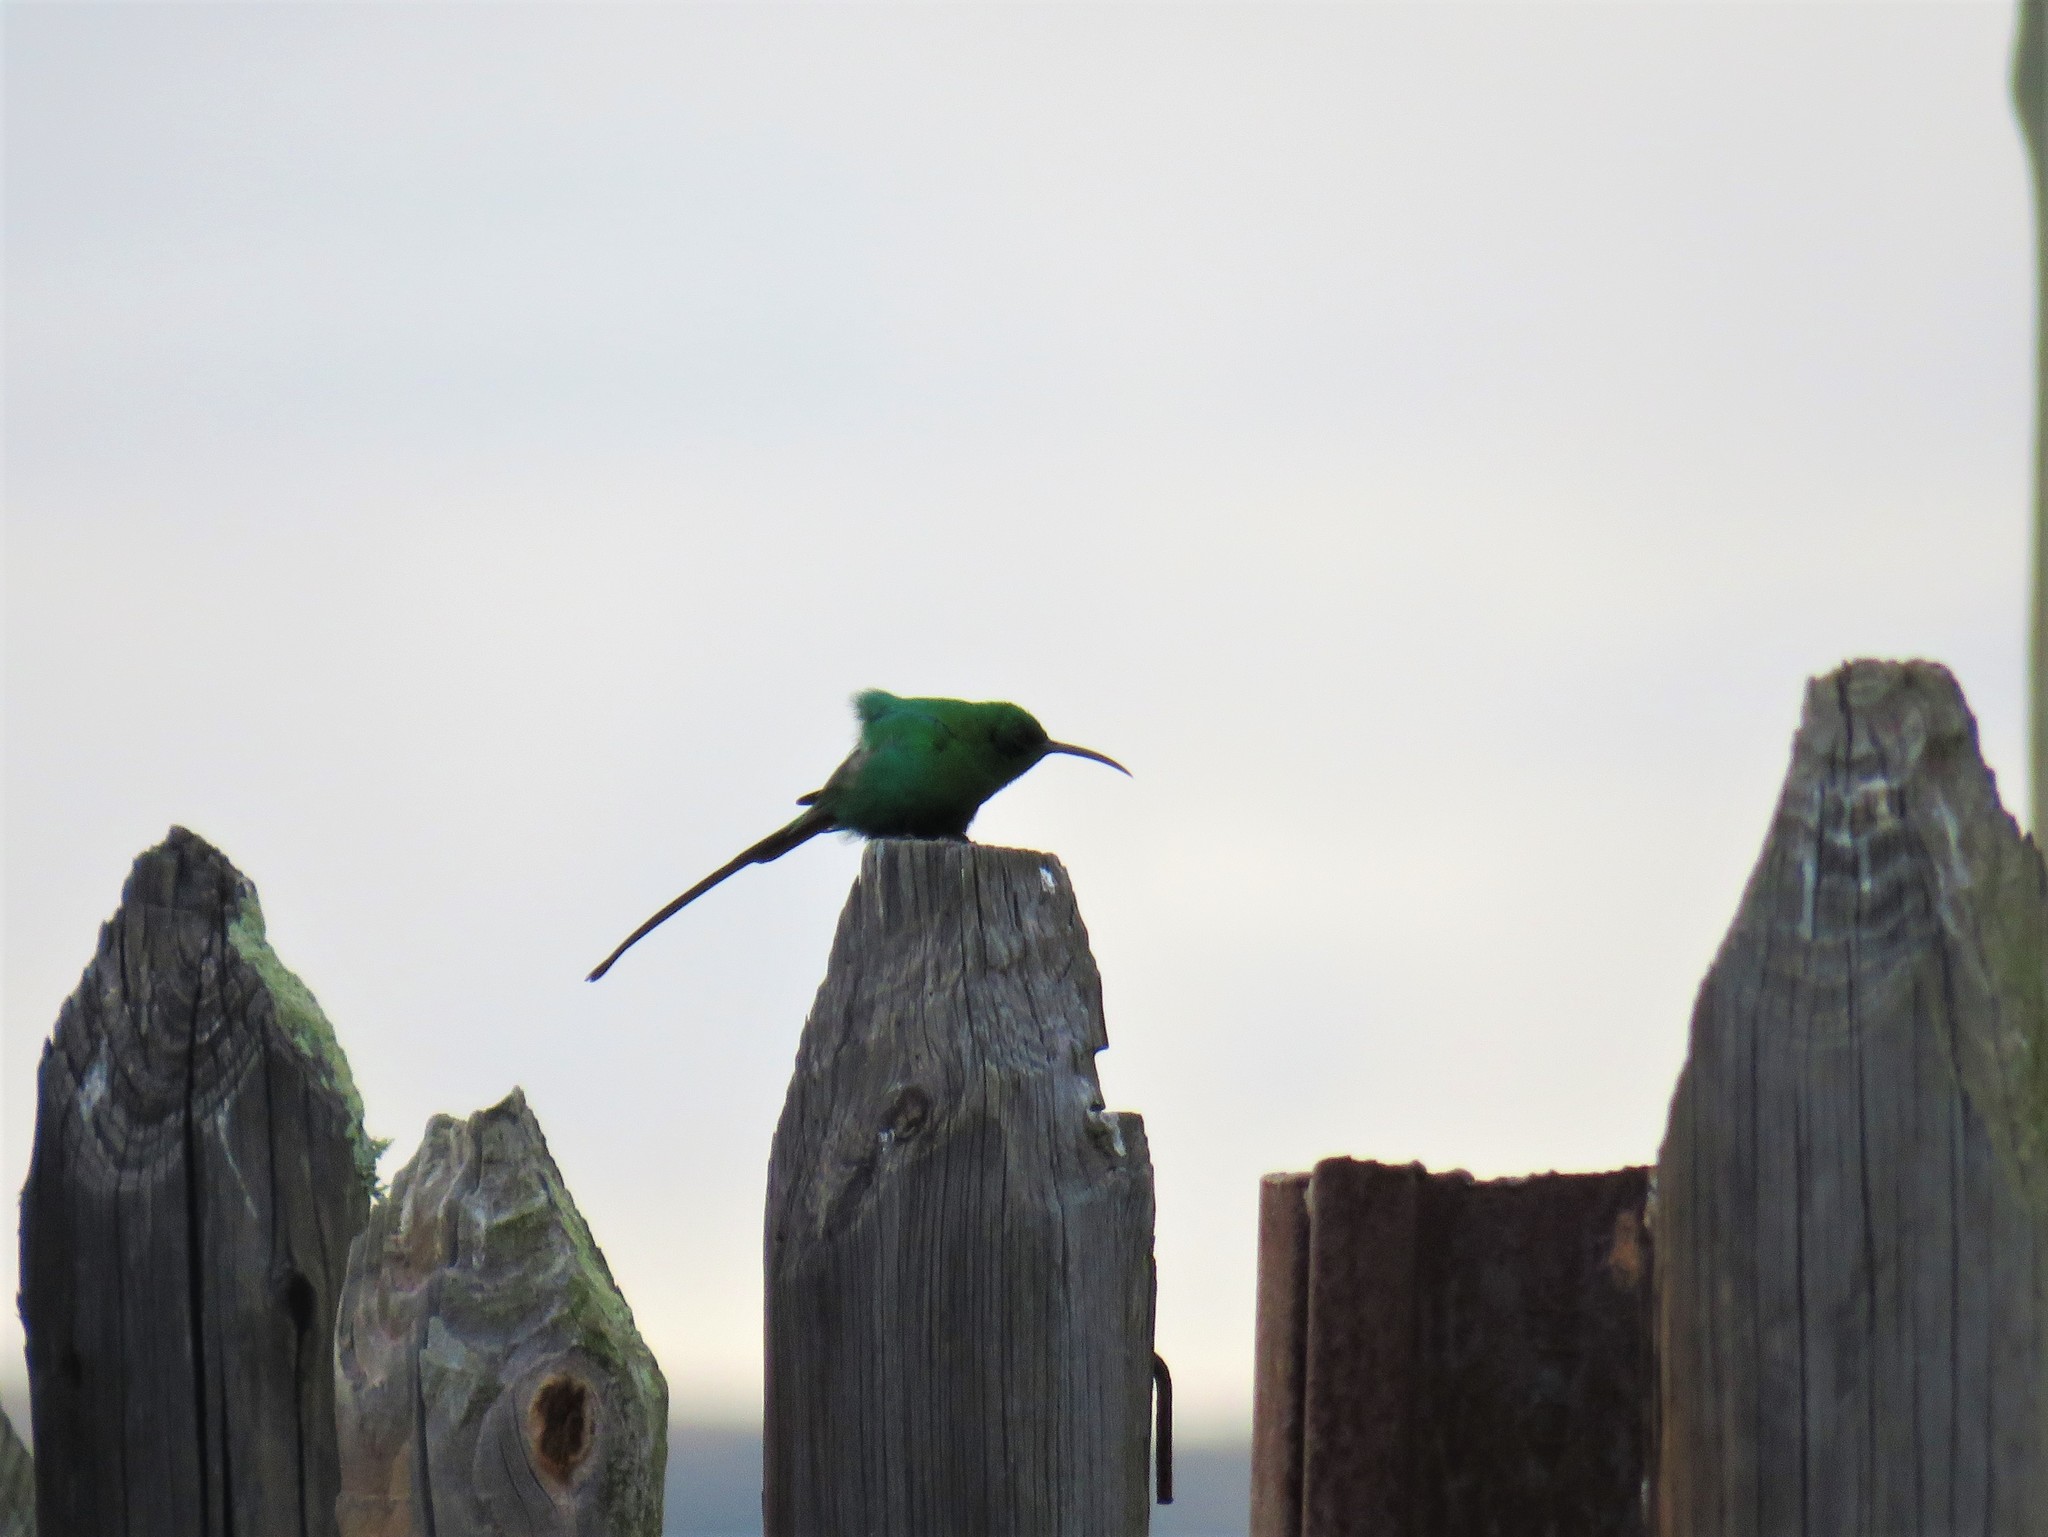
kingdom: Animalia
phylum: Chordata
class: Aves
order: Passeriformes
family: Nectariniidae
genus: Nectarinia
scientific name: Nectarinia famosa
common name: Malachite sunbird
